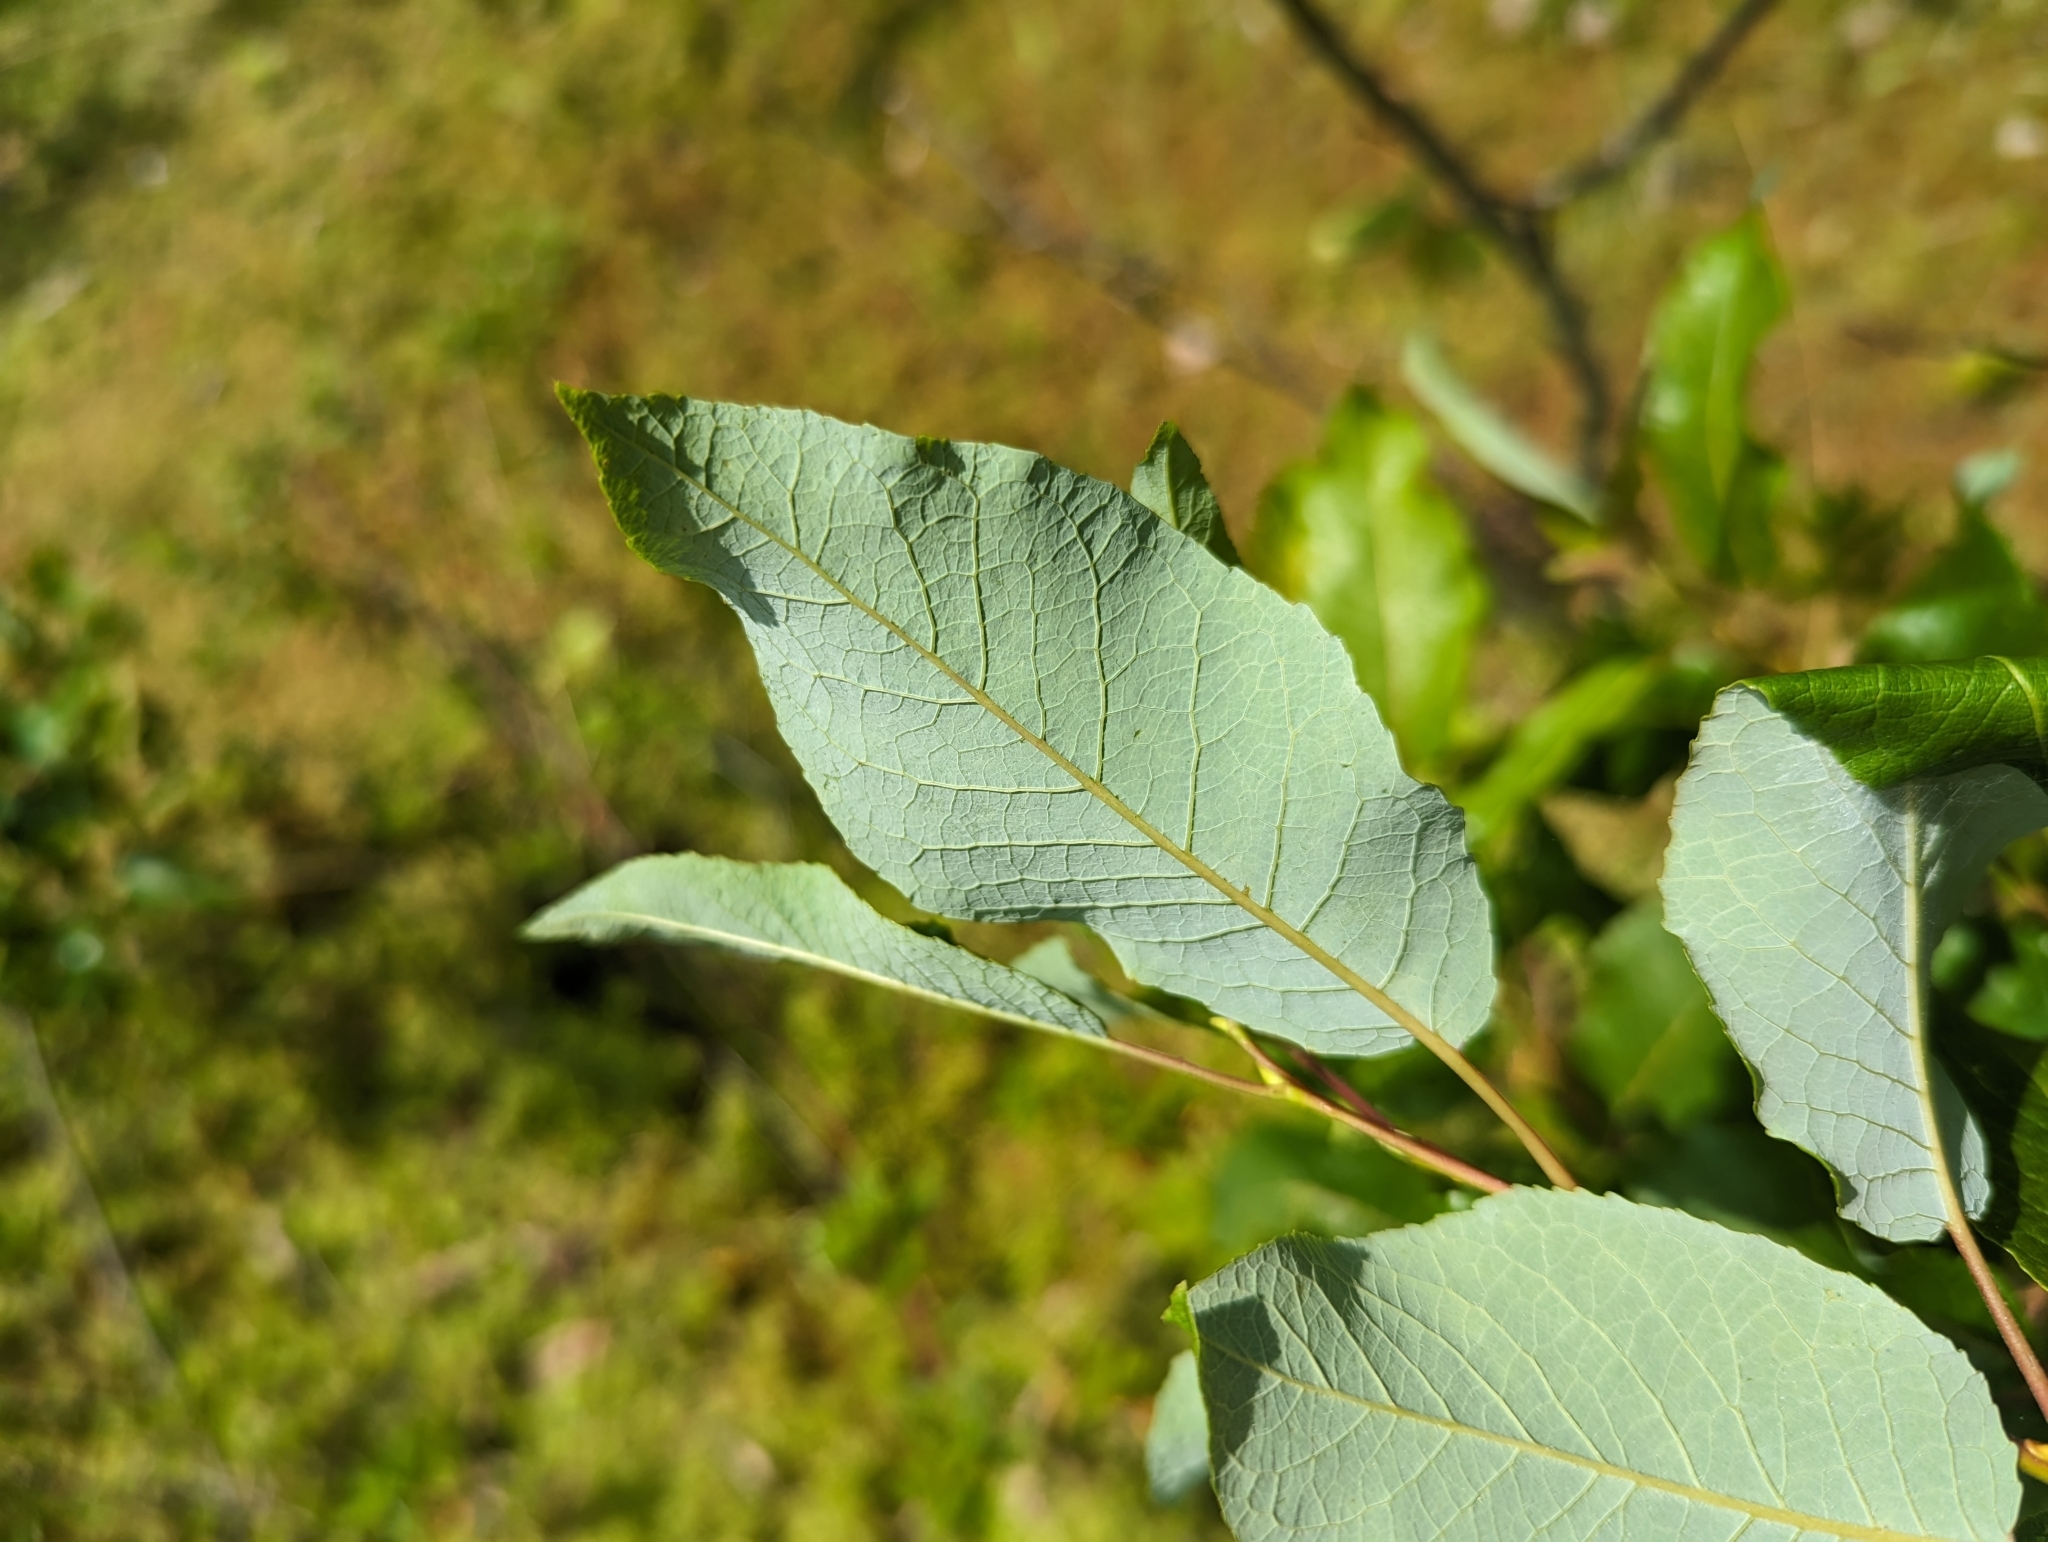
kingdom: Plantae
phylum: Tracheophyta
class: Magnoliopsida
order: Malpighiales
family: Salicaceae
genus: Salix
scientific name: Salix pyrifolia
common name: Balsam willow
